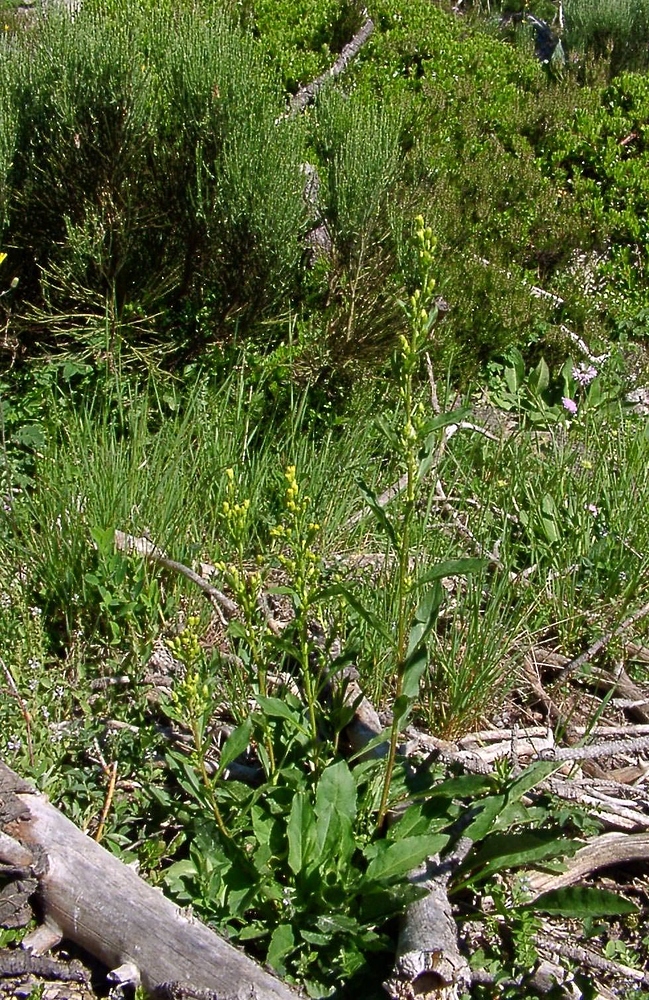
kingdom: Plantae
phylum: Tracheophyta
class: Magnoliopsida
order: Asterales
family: Asteraceae
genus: Solidago
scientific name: Solidago virgaurea
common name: Goldenrod
